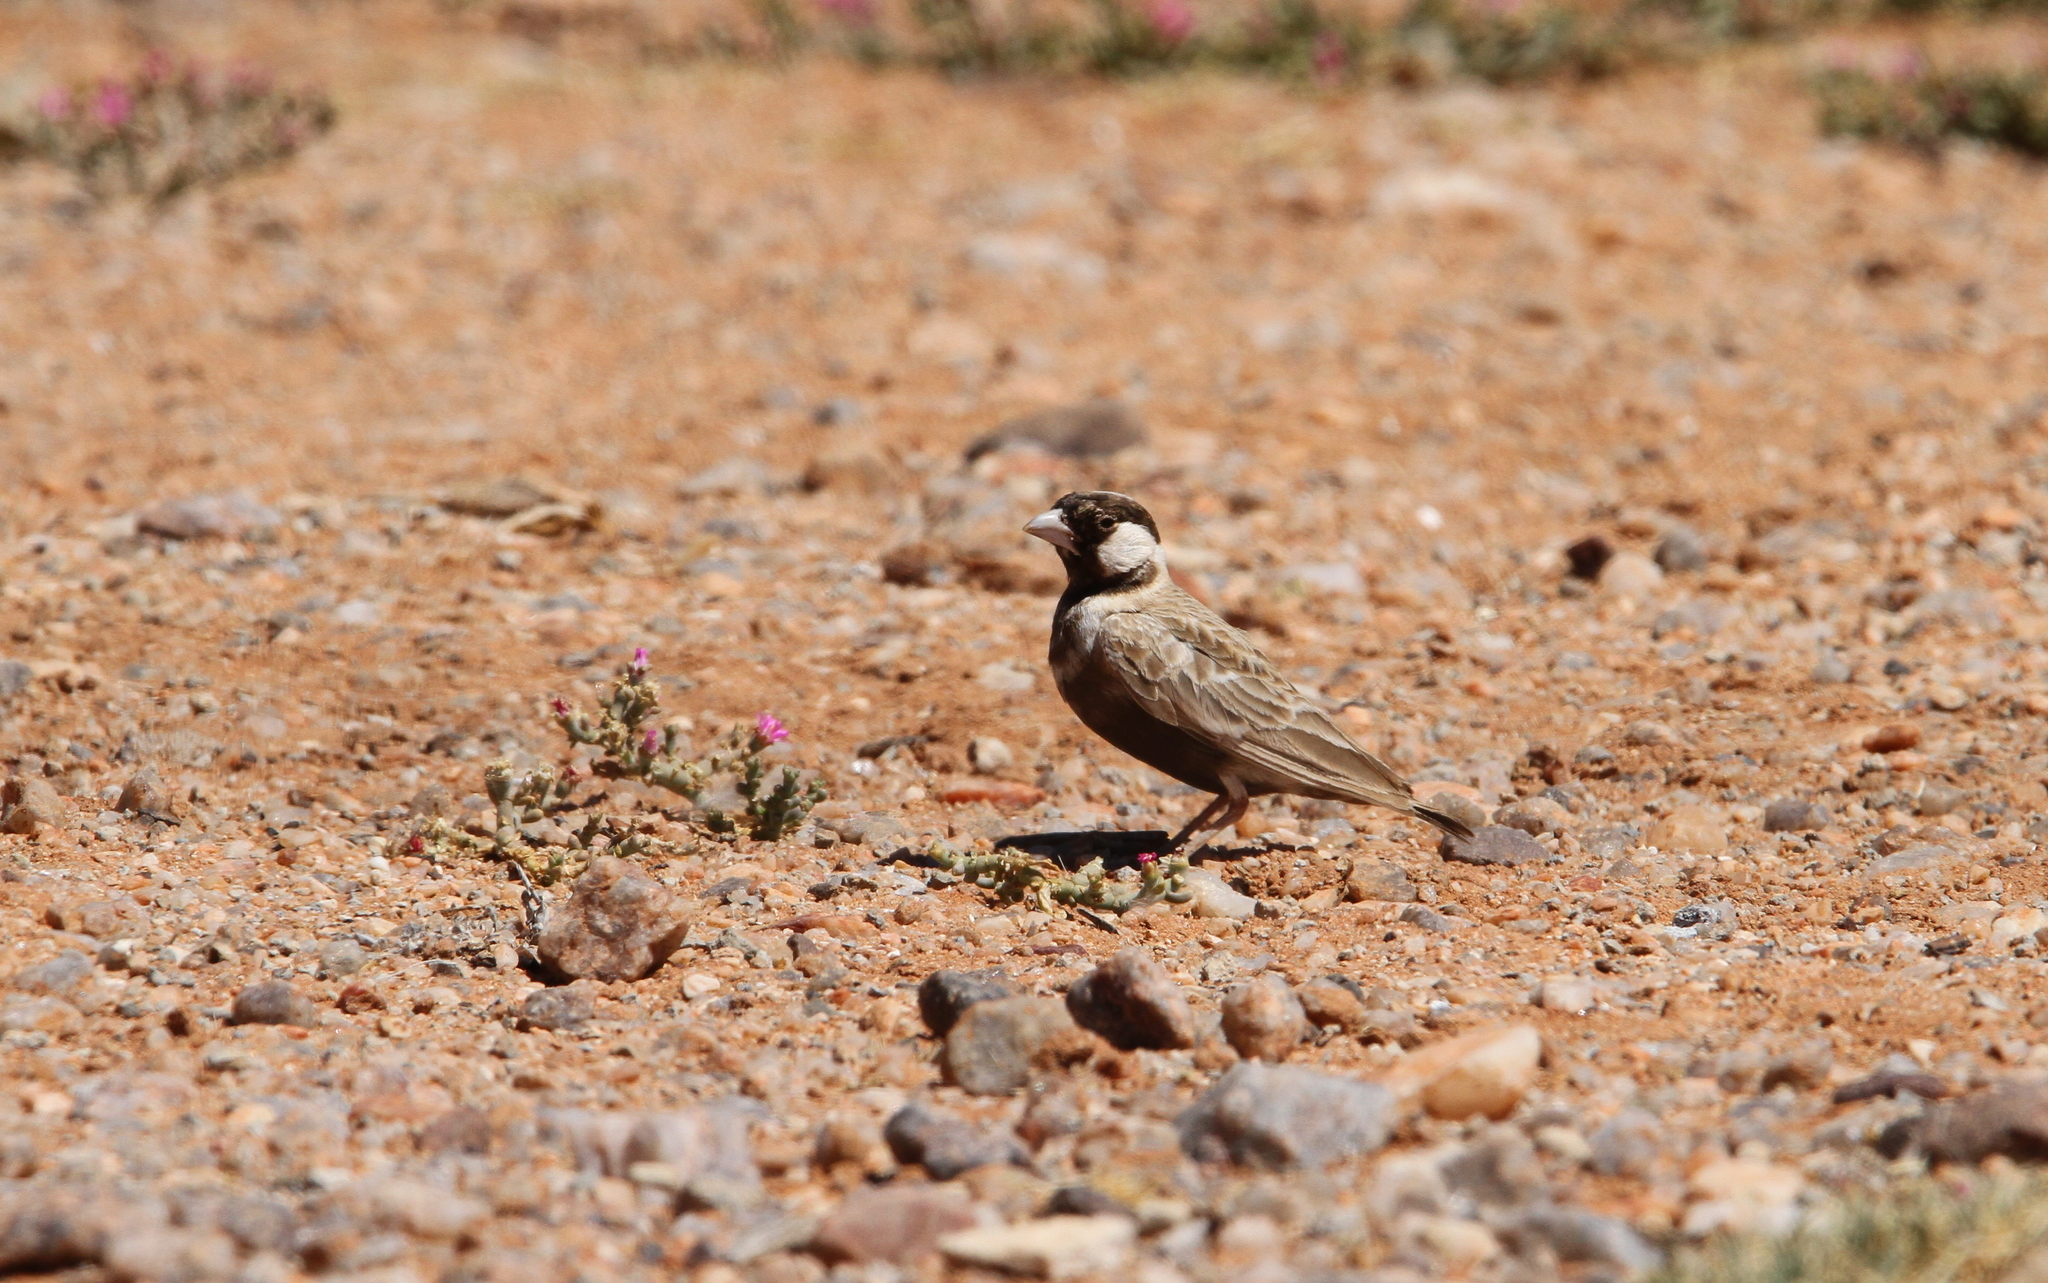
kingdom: Animalia
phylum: Chordata
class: Aves
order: Passeriformes
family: Alaudidae
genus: Eremopterix
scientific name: Eremopterix verticalis
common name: Grey-backed sparrow-lark
